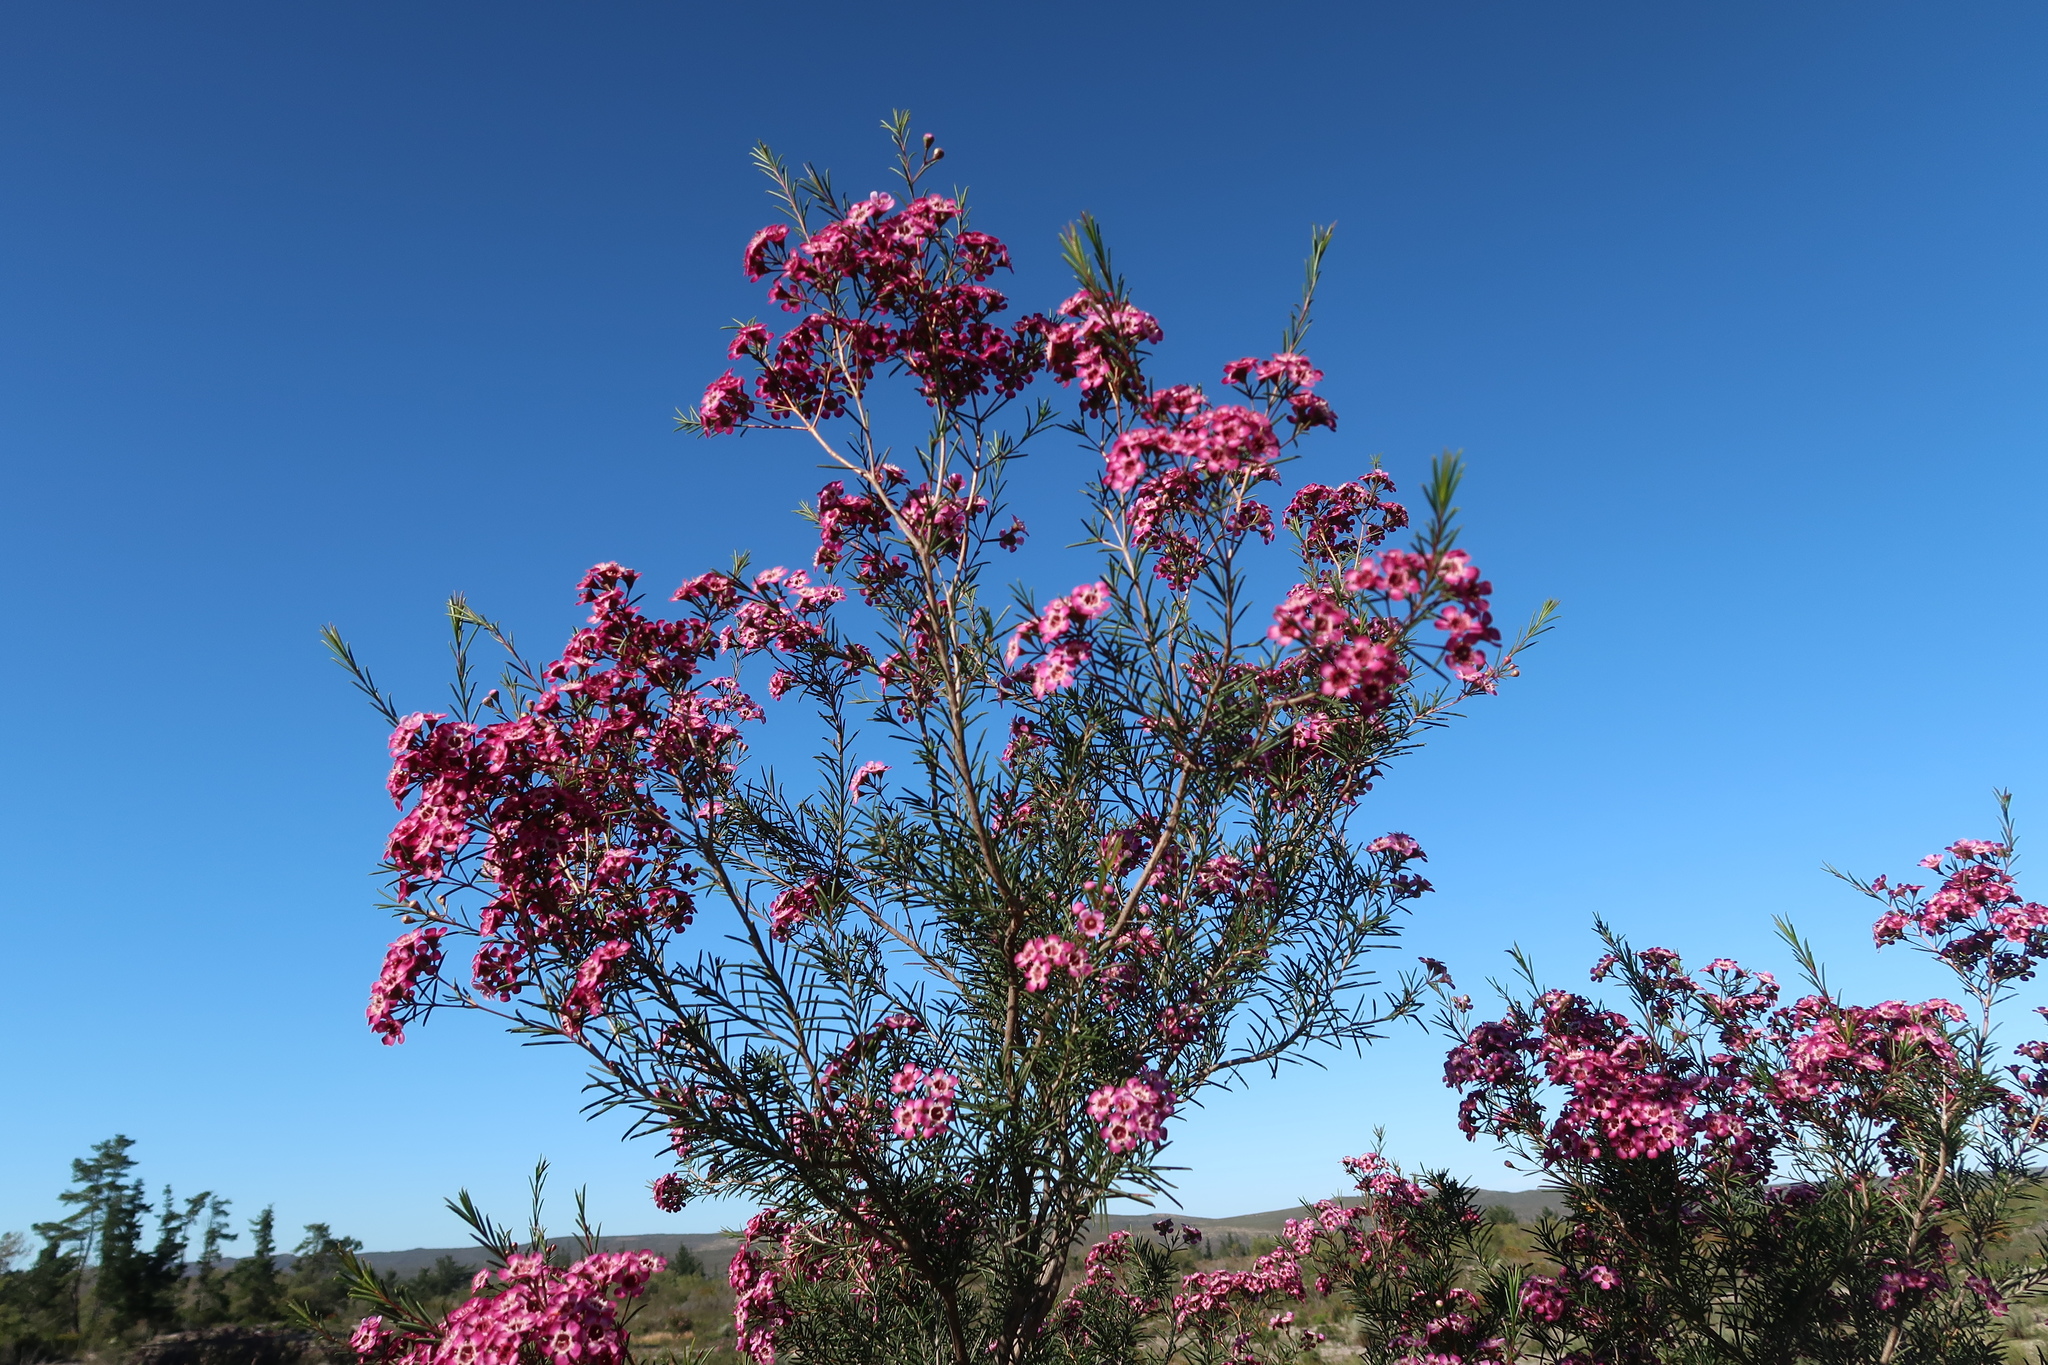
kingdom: Plantae
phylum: Tracheophyta
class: Magnoliopsida
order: Myrtales
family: Myrtaceae
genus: Chamelaucium
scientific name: Chamelaucium uncinatum
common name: Geraldton wax
